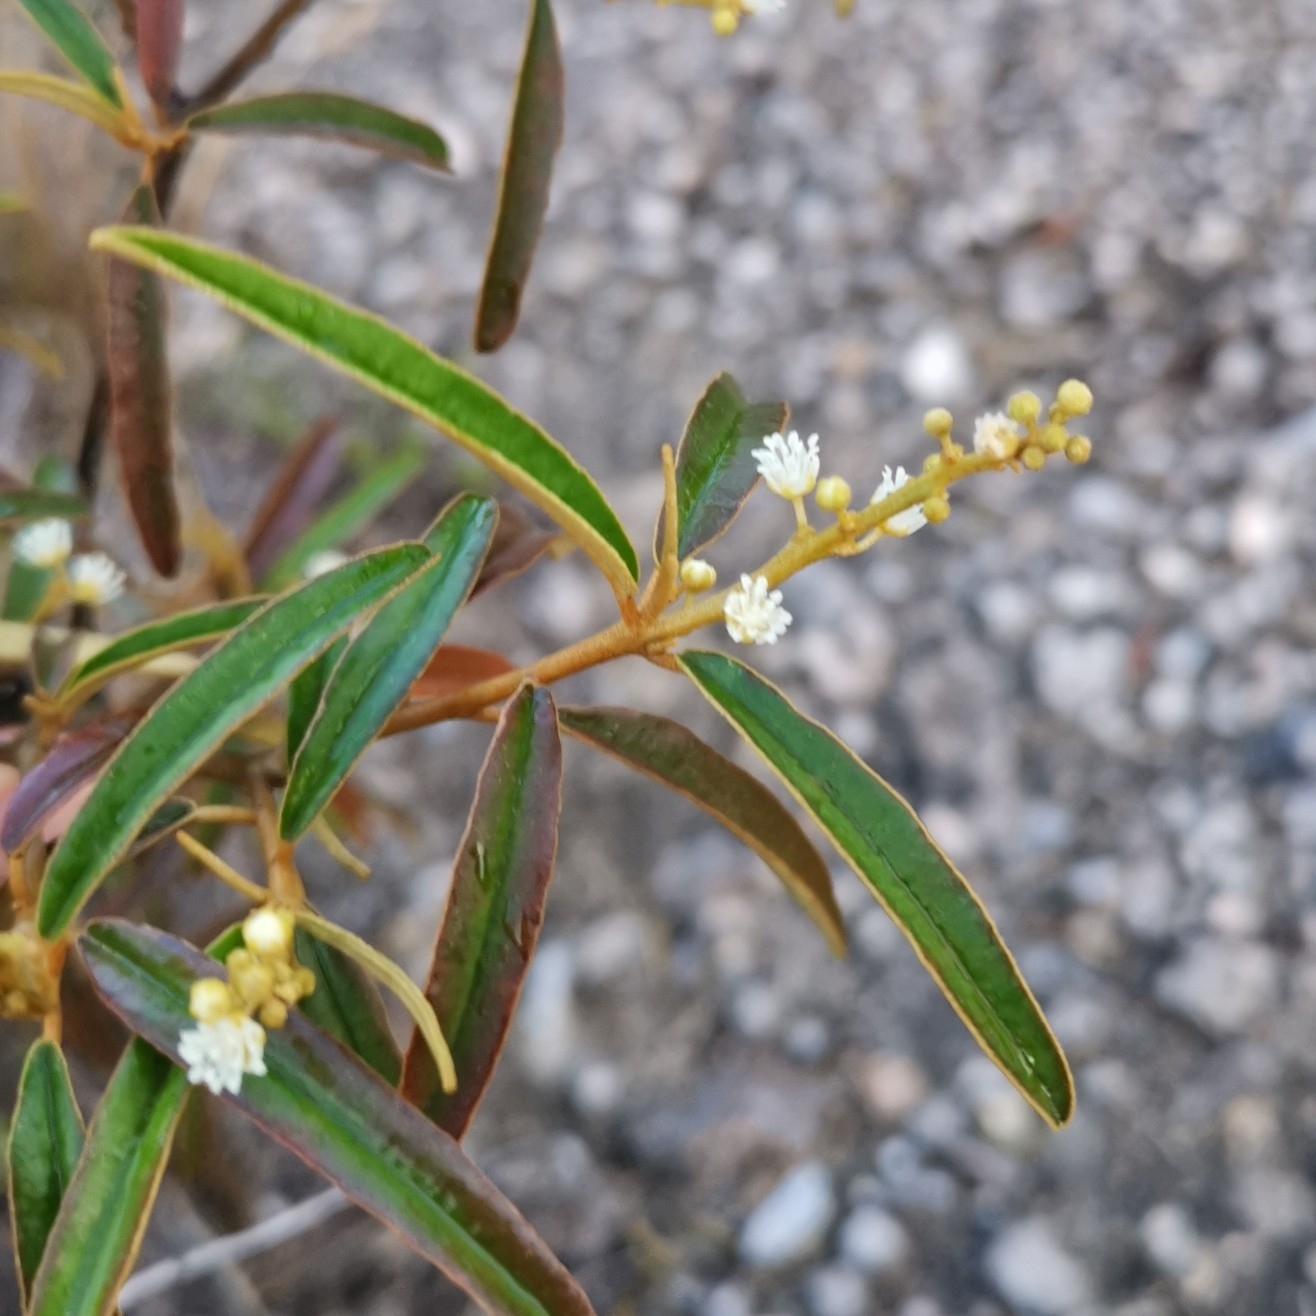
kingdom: Plantae
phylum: Tracheophyta
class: Magnoliopsida
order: Malpighiales
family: Euphorbiaceae
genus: Croton
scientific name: Croton linearis
